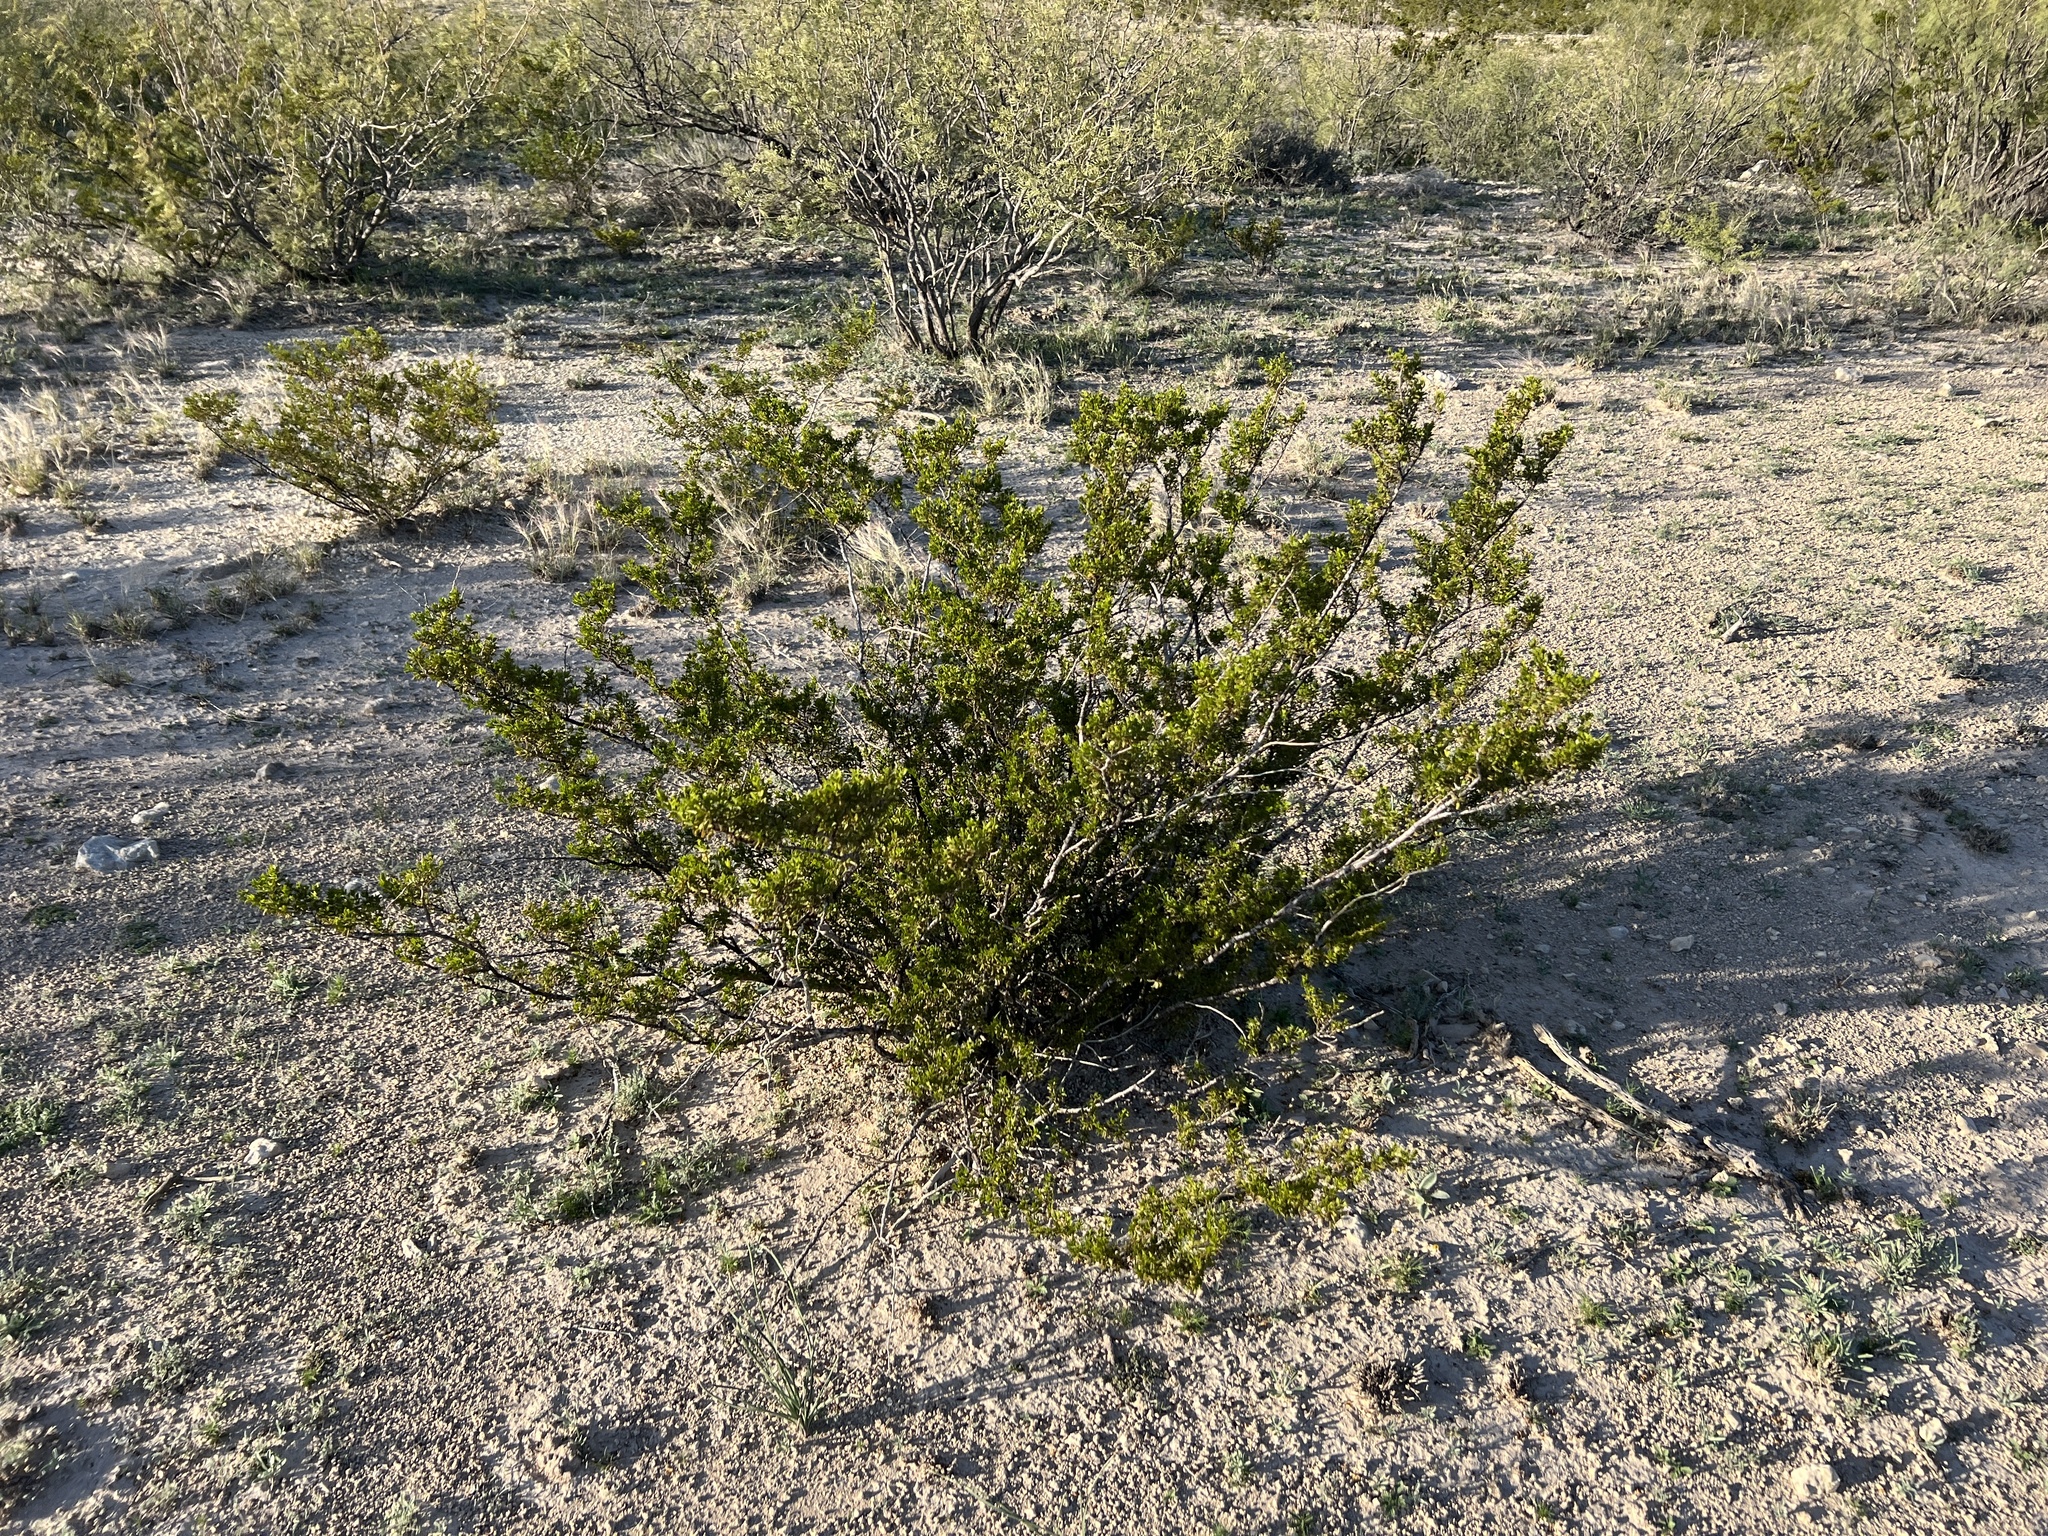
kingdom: Plantae
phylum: Tracheophyta
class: Magnoliopsida
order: Zygophyllales
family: Zygophyllaceae
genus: Larrea
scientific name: Larrea tridentata
